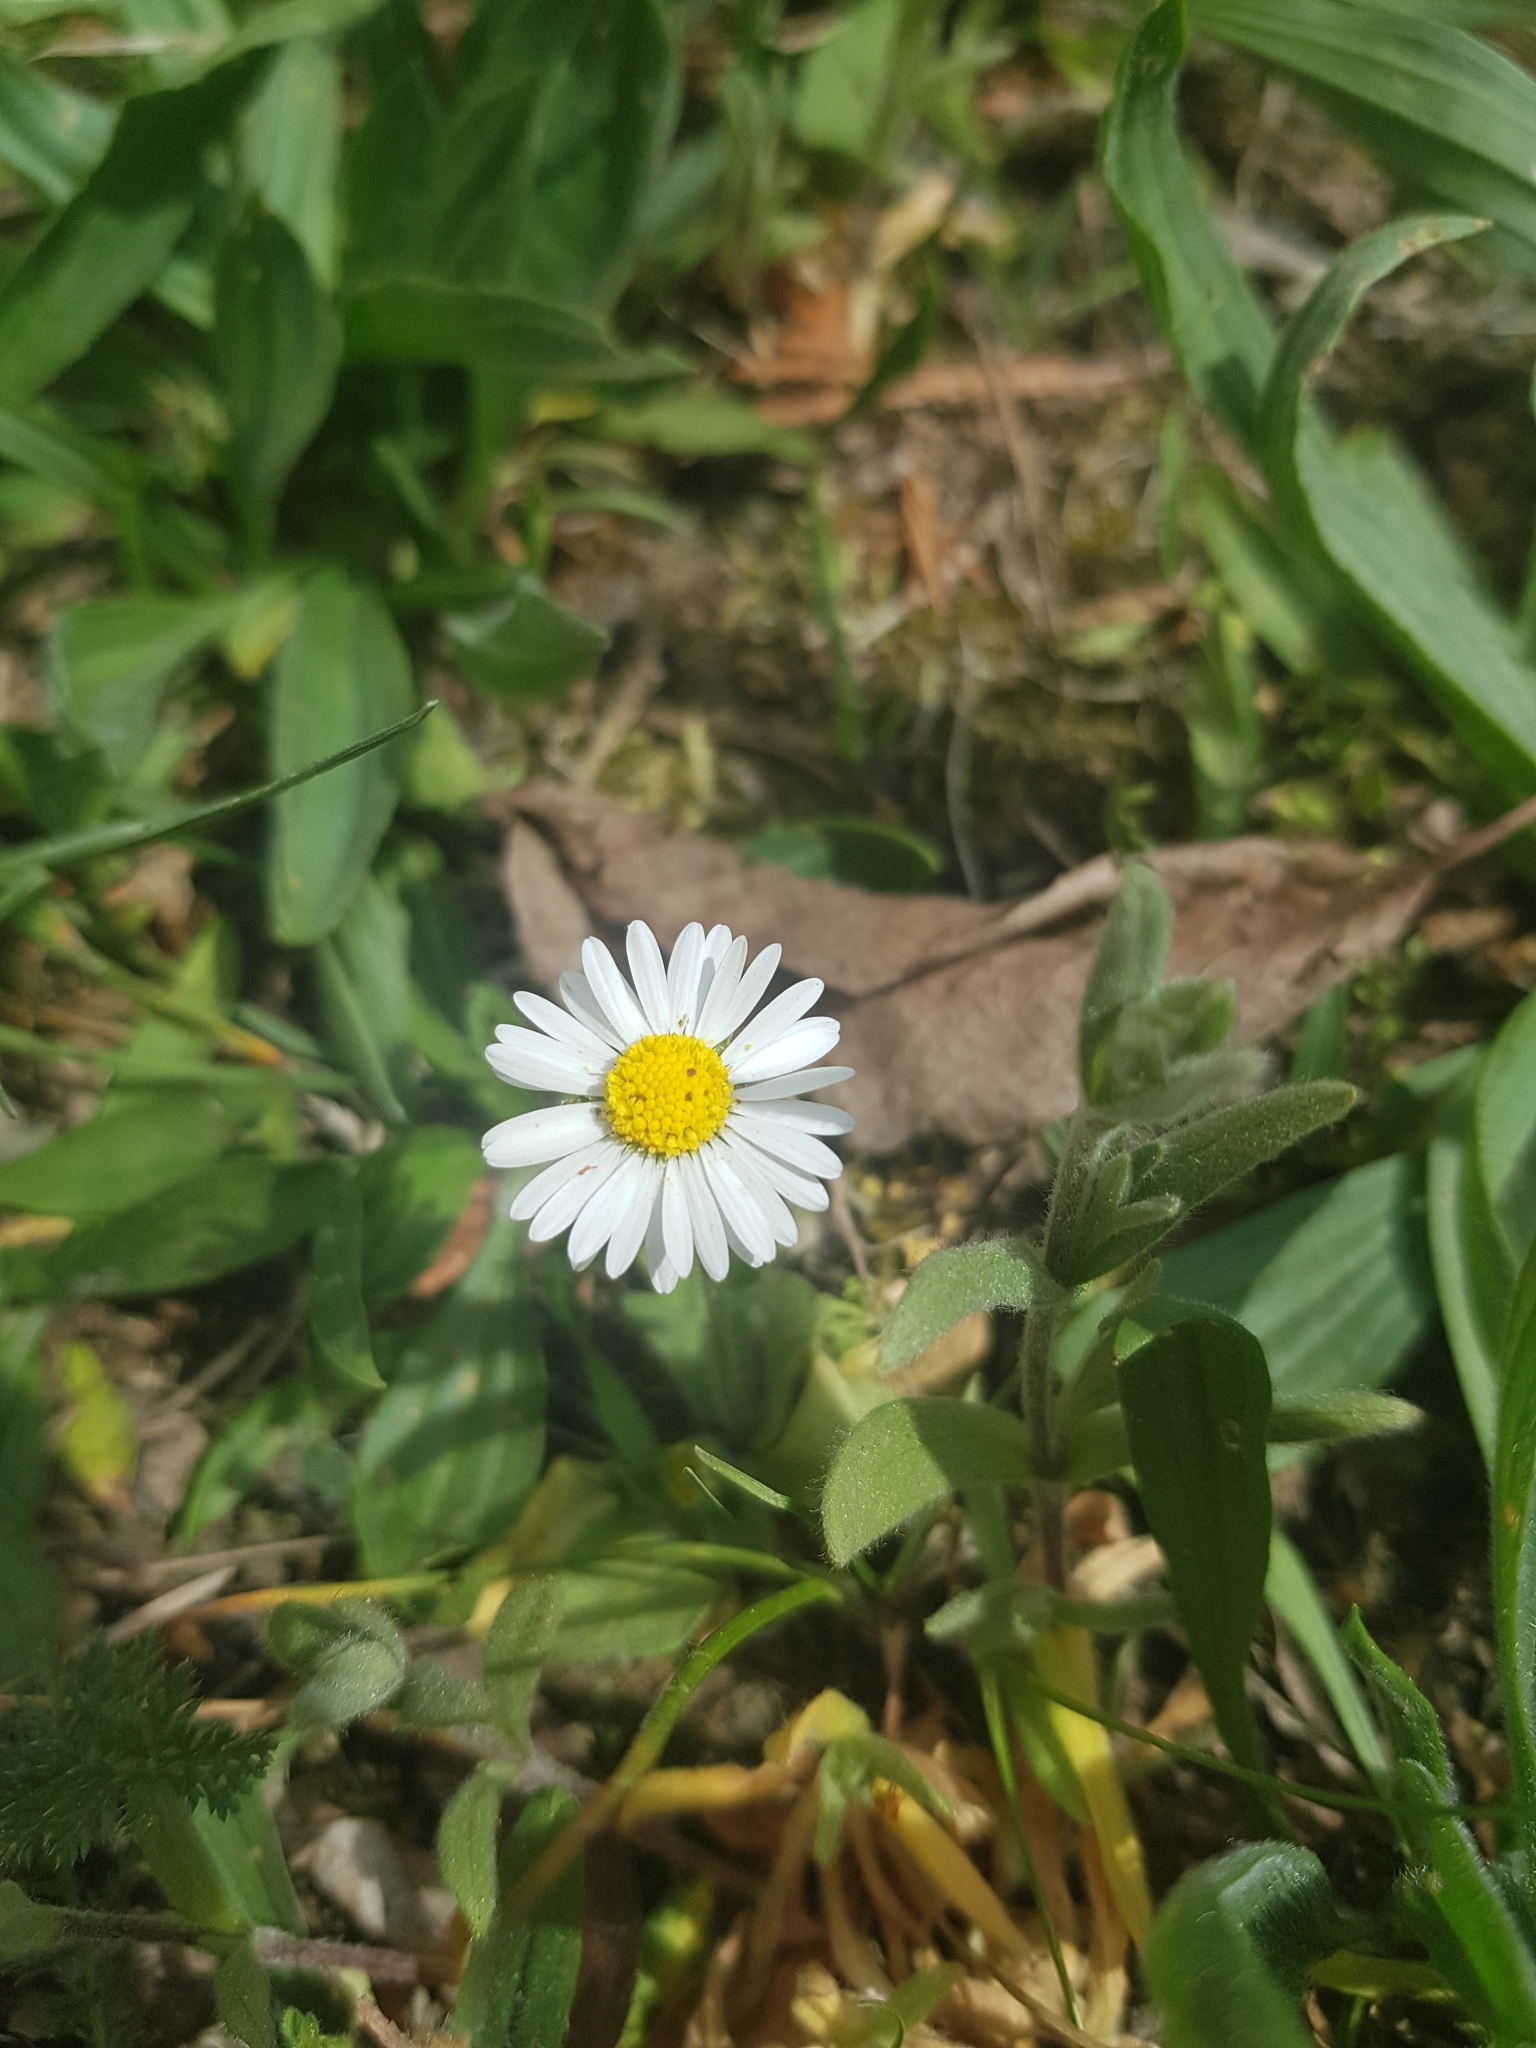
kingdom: Plantae
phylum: Tracheophyta
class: Magnoliopsida
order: Asterales
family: Asteraceae
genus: Bellis
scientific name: Bellis perennis
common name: Lawndaisy
